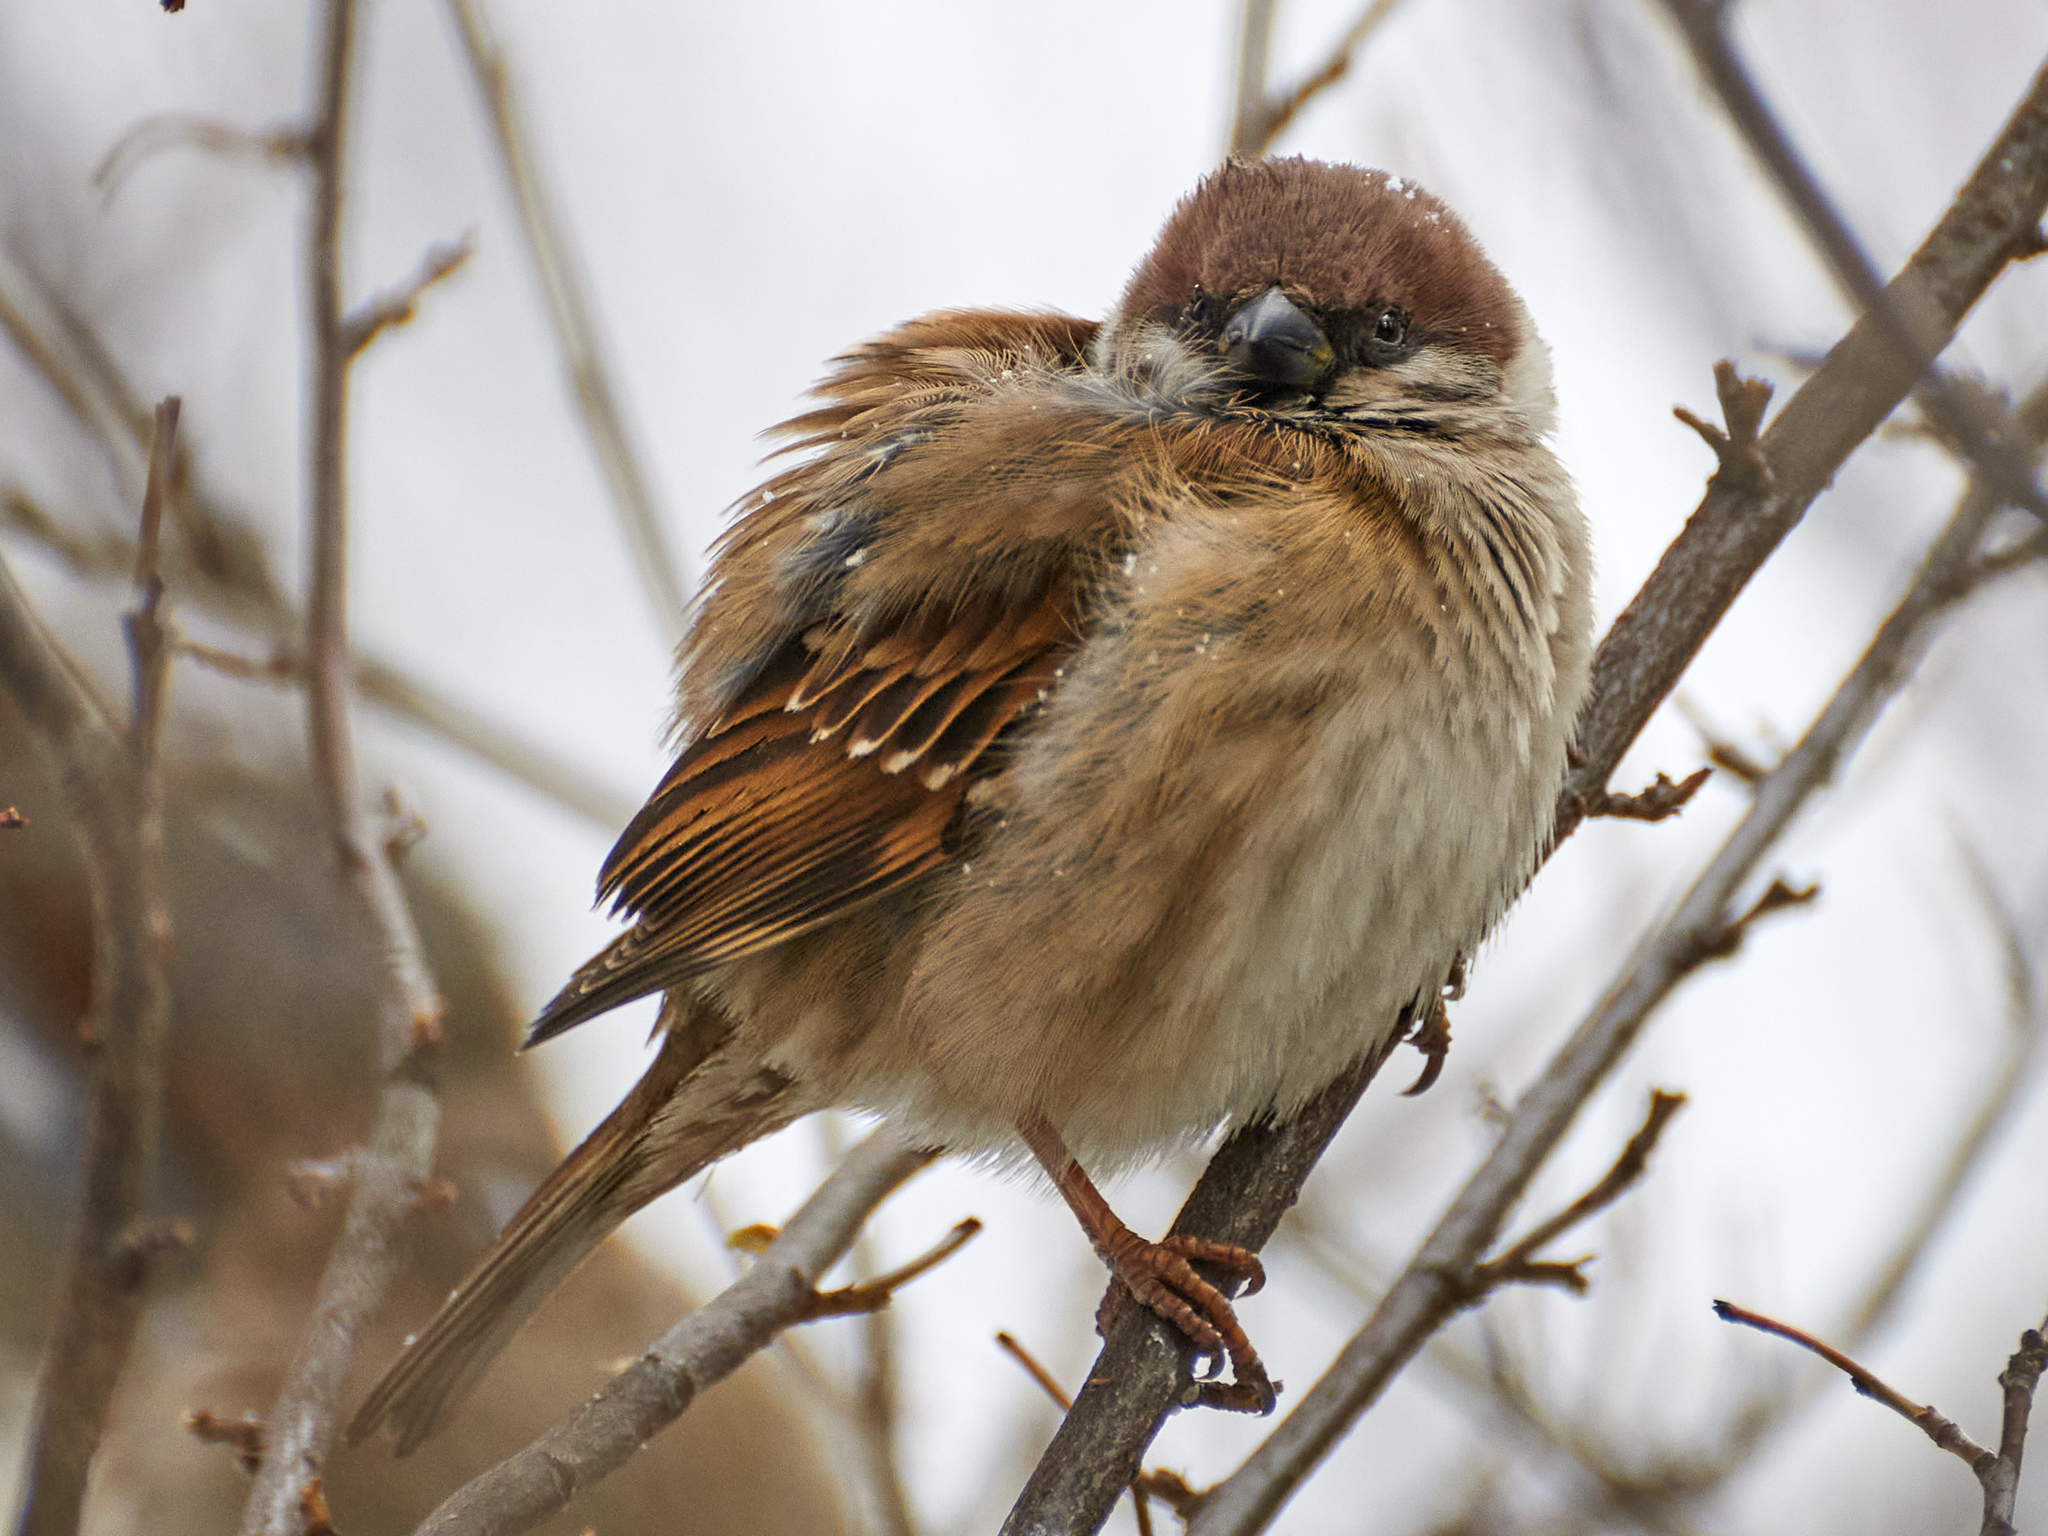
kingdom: Animalia
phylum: Chordata
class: Aves
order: Passeriformes
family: Passeridae
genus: Passer
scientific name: Passer montanus
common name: Eurasian tree sparrow
